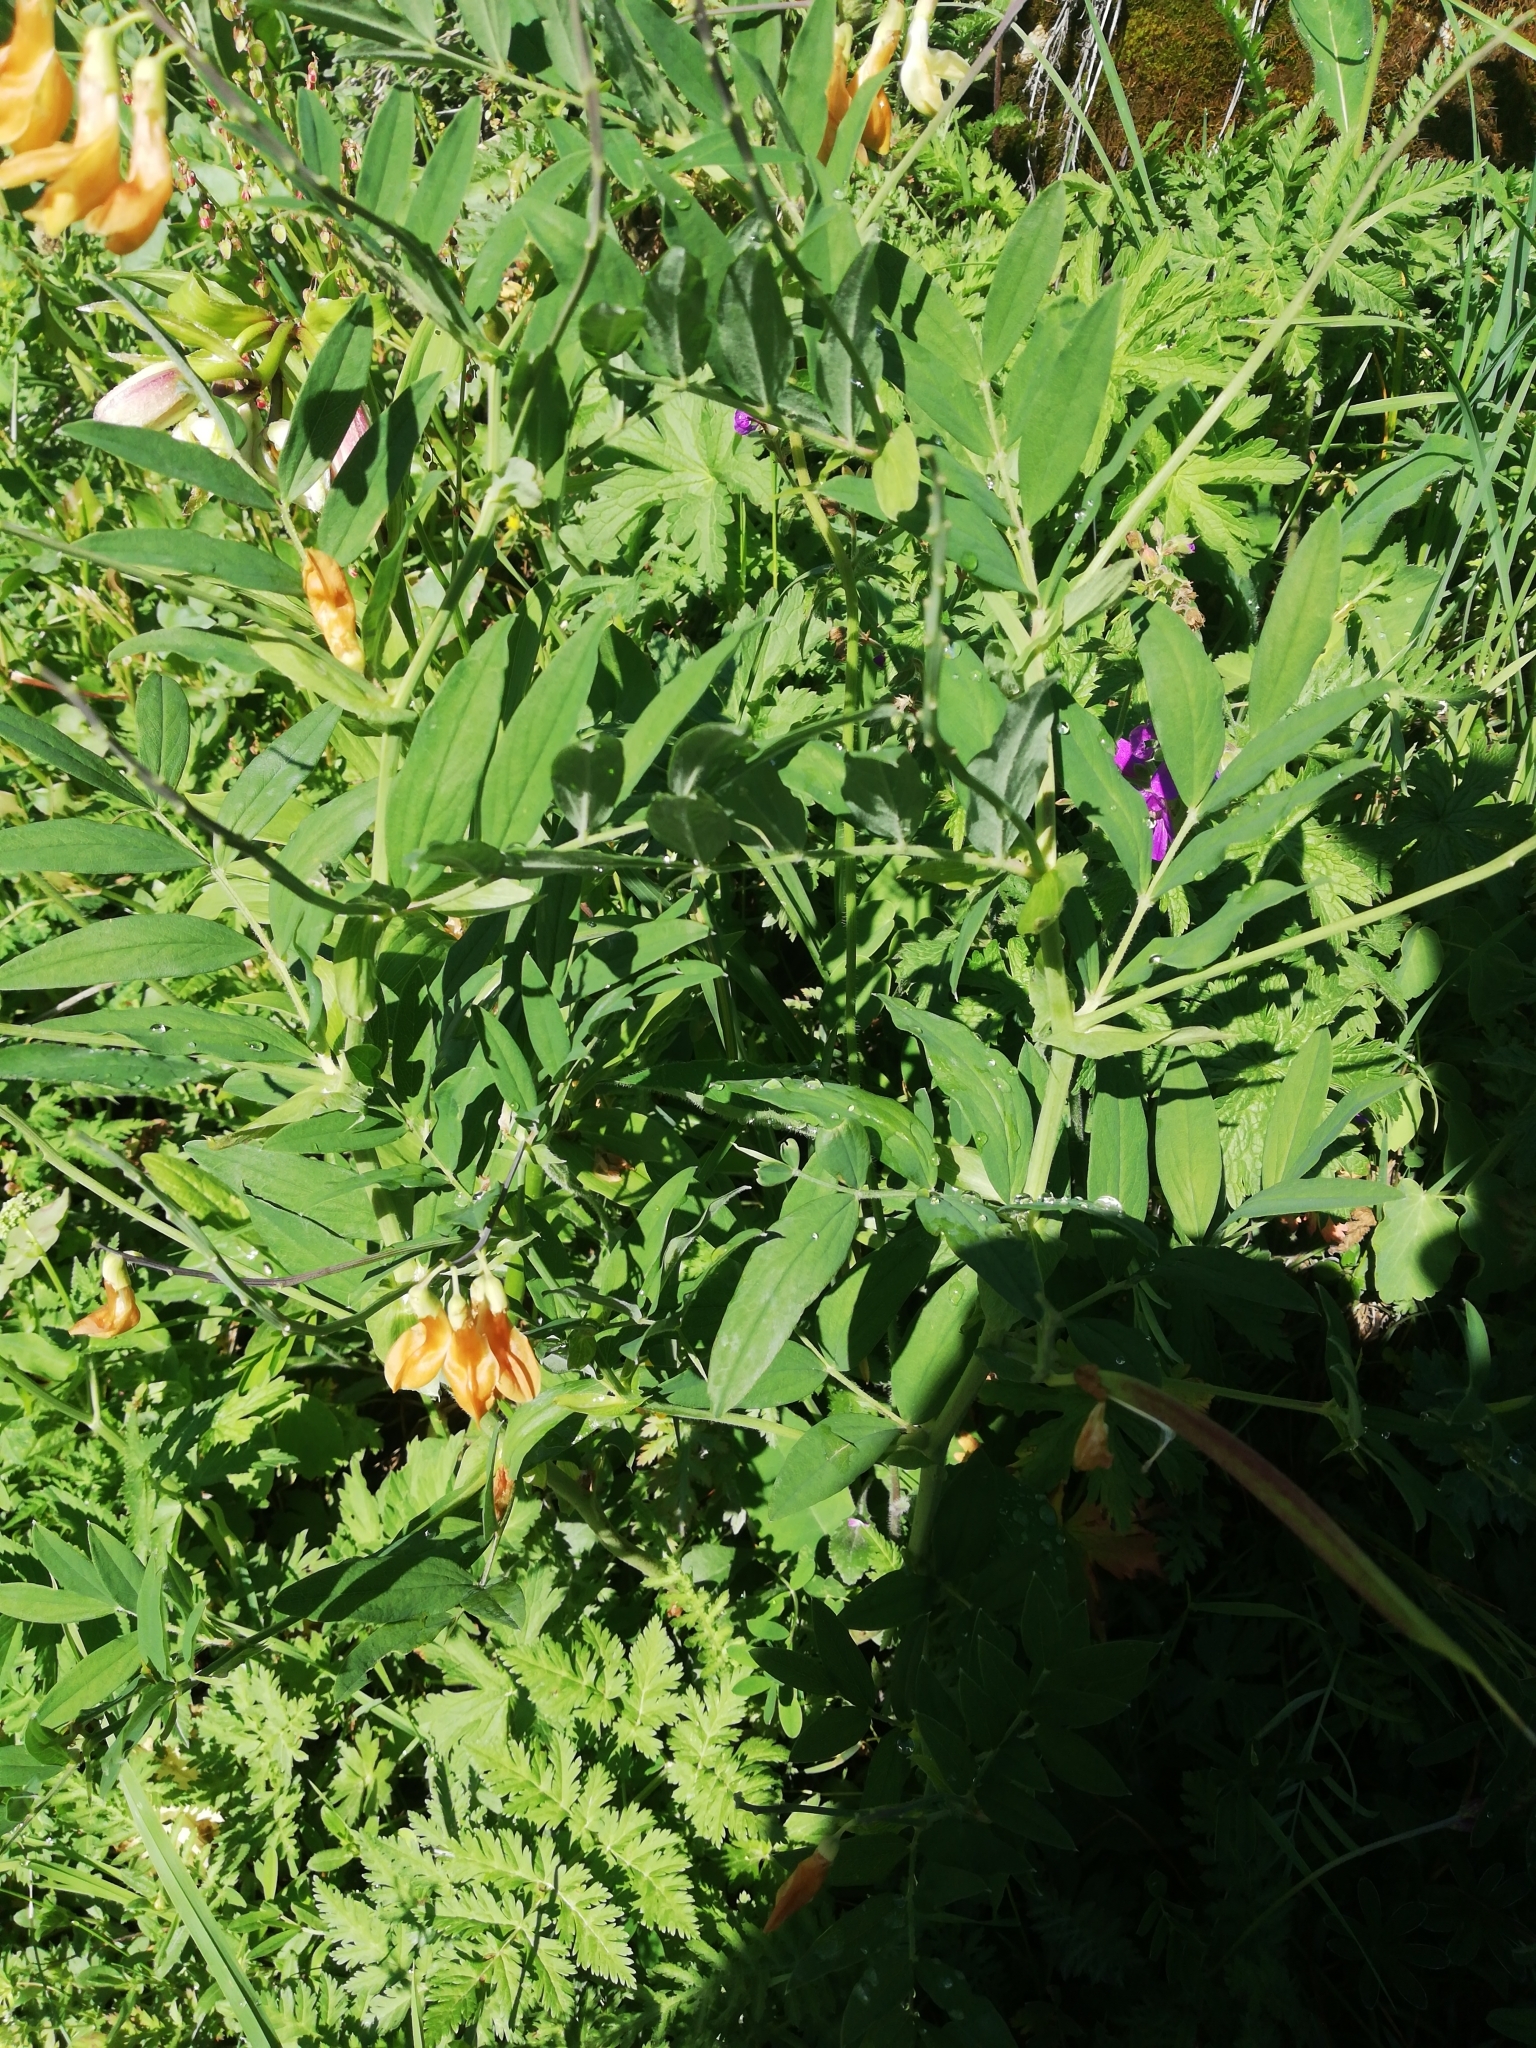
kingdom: Plantae
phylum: Tracheophyta
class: Magnoliopsida
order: Fabales
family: Fabaceae
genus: Lathyrus
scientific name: Lathyrus laevigatus
